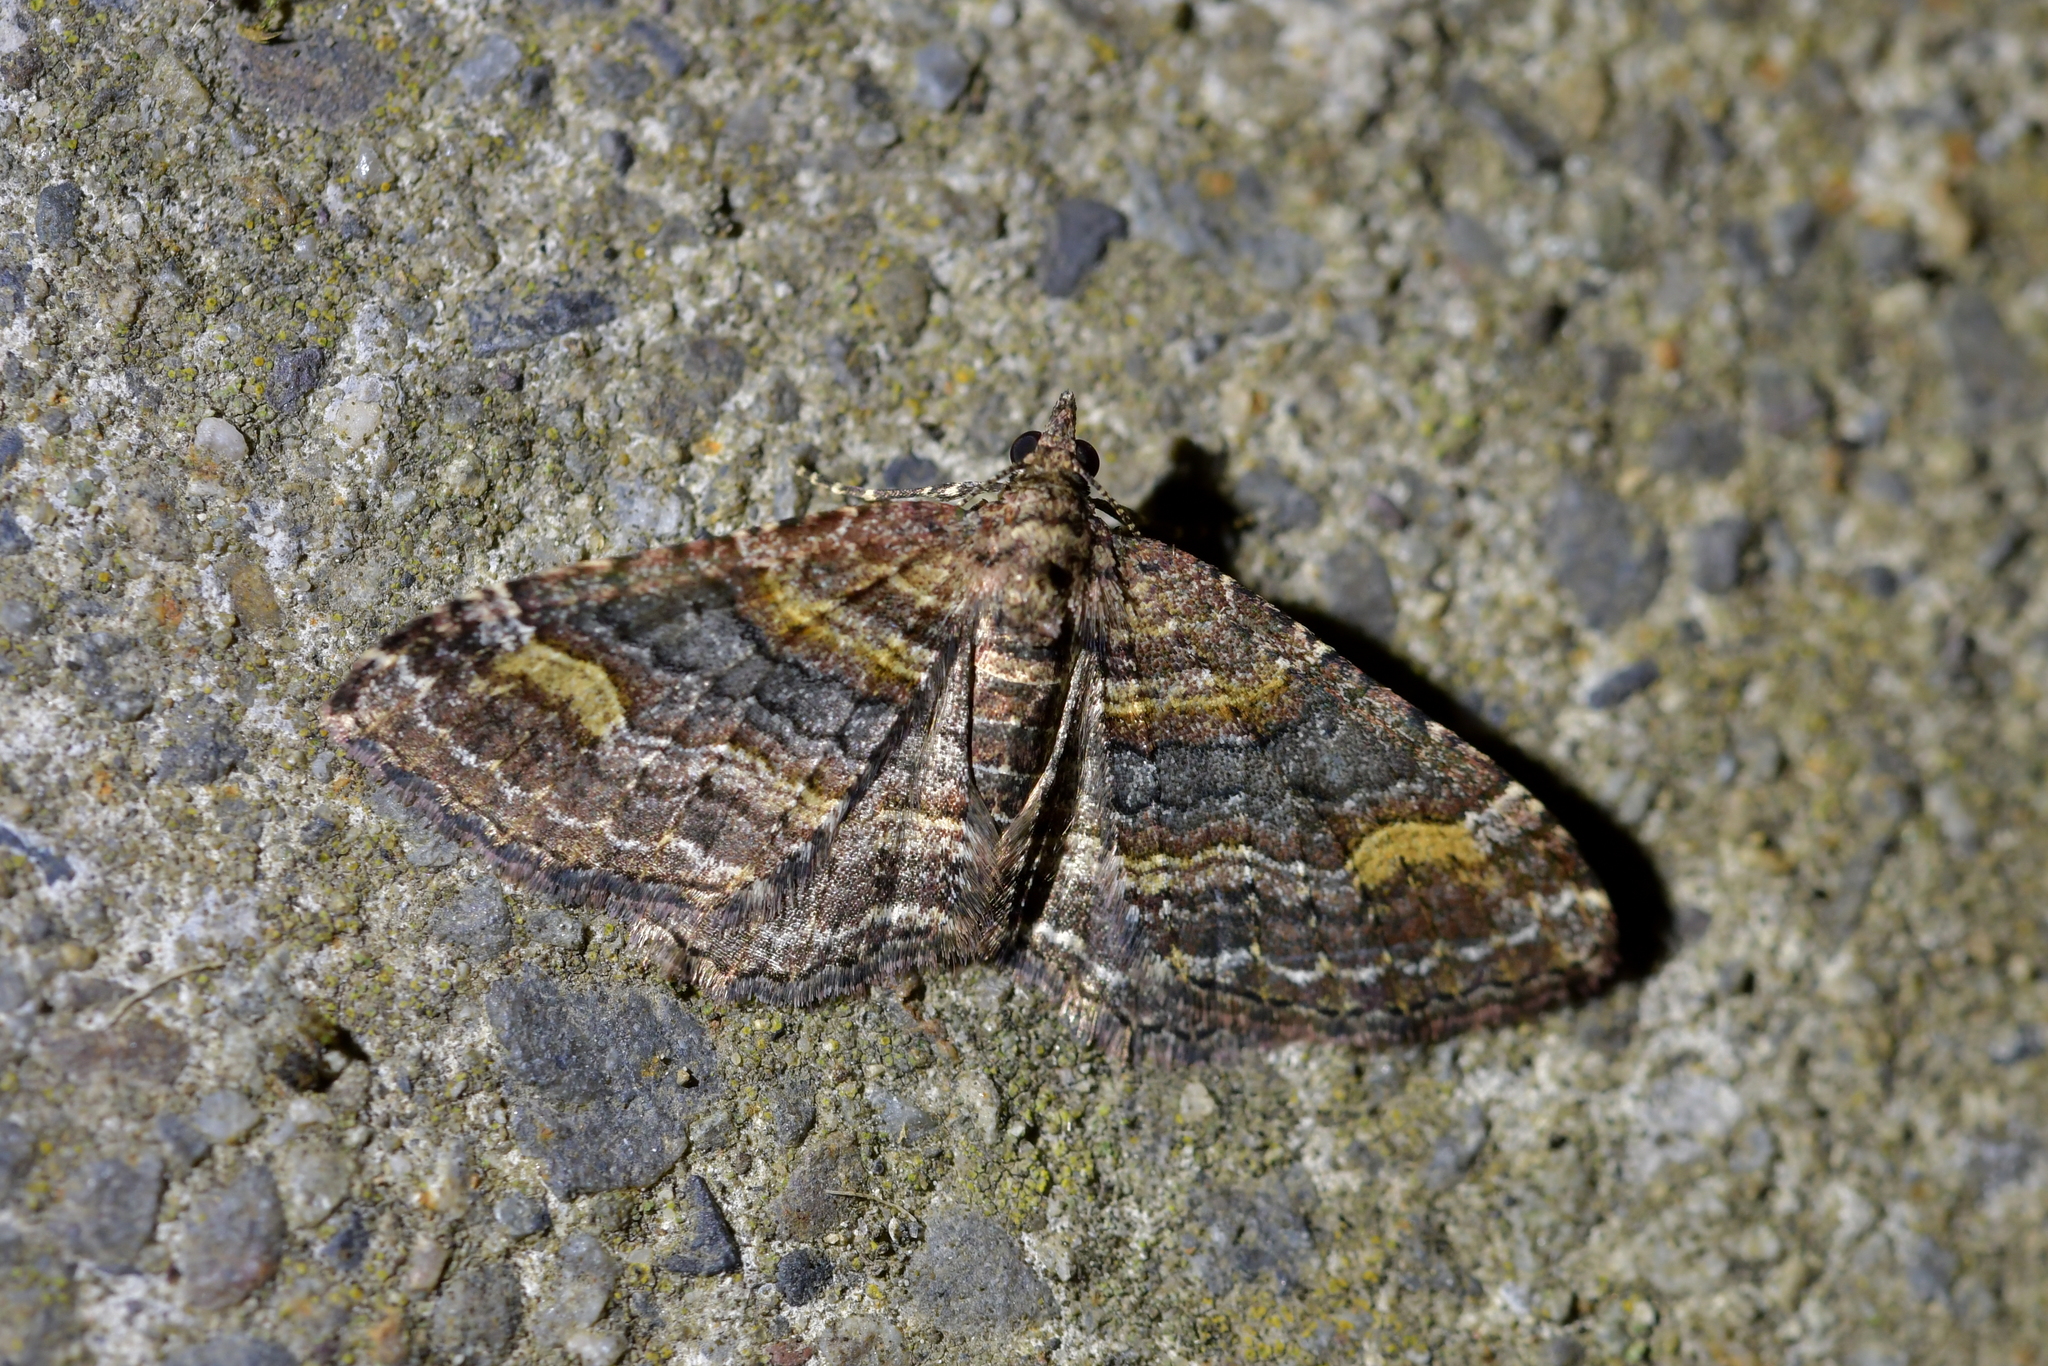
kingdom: Animalia
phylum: Arthropoda
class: Insecta
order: Lepidoptera
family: Geometridae
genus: Epyaxa
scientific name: Epyaxa lucidata
